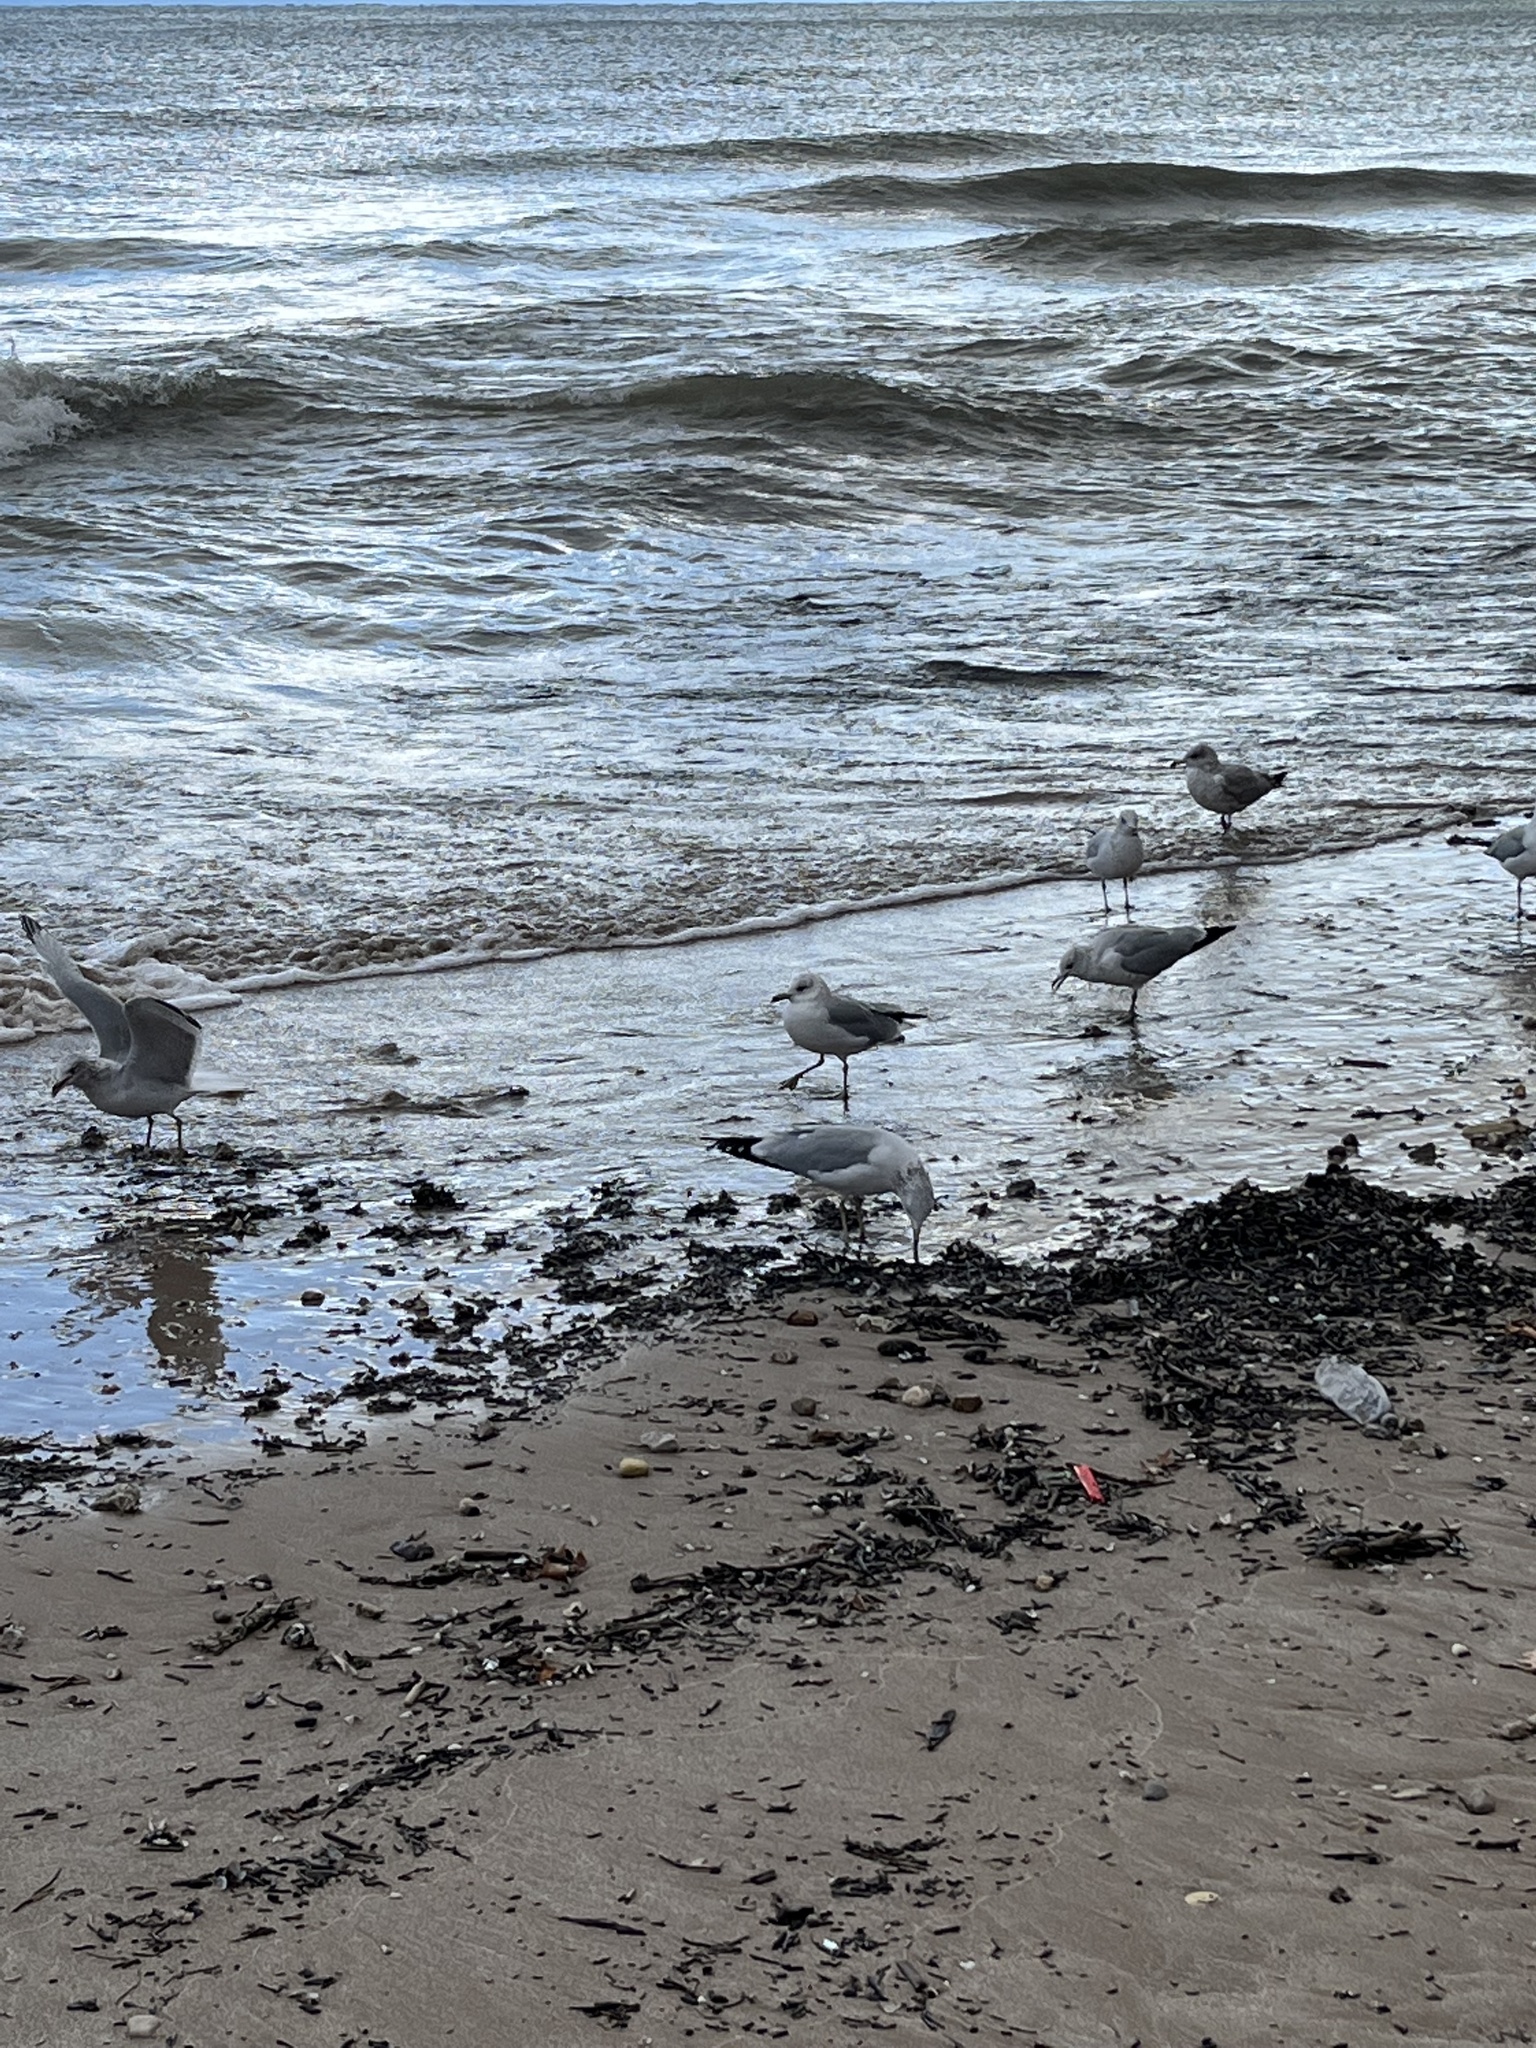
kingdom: Animalia
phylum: Chordata
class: Aves
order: Charadriiformes
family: Laridae
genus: Larus
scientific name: Larus delawarensis
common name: Ring-billed gull
